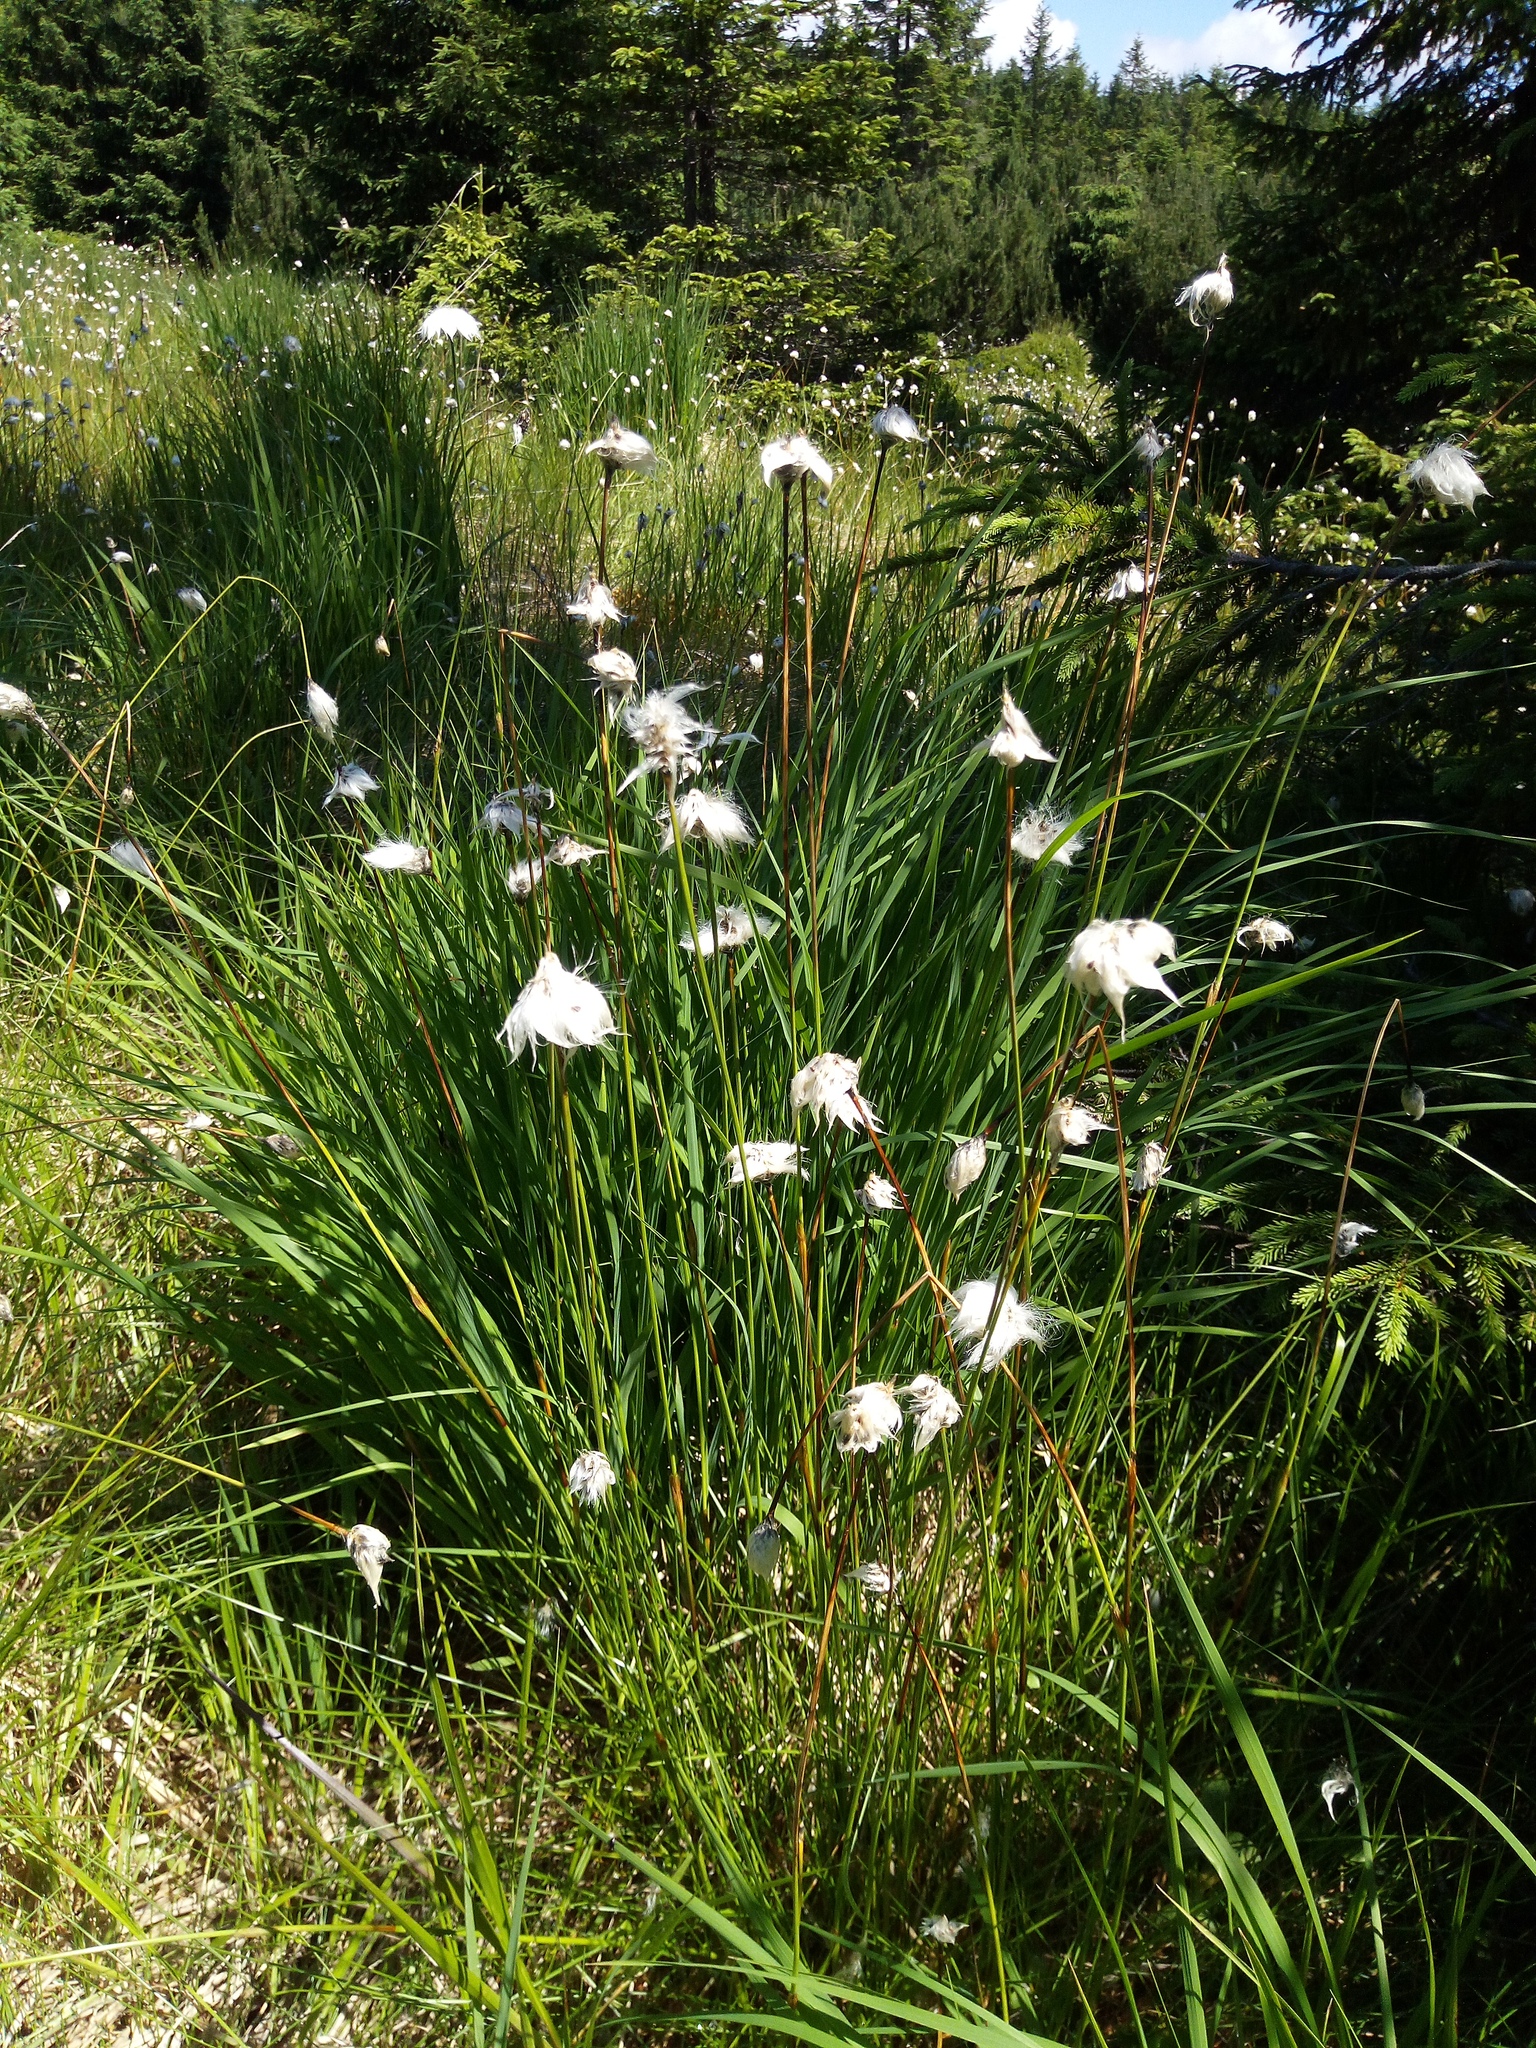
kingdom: Plantae
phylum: Tracheophyta
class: Liliopsida
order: Poales
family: Cyperaceae
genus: Eriophorum
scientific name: Eriophorum vaginatum
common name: Hare's-tail cottongrass
